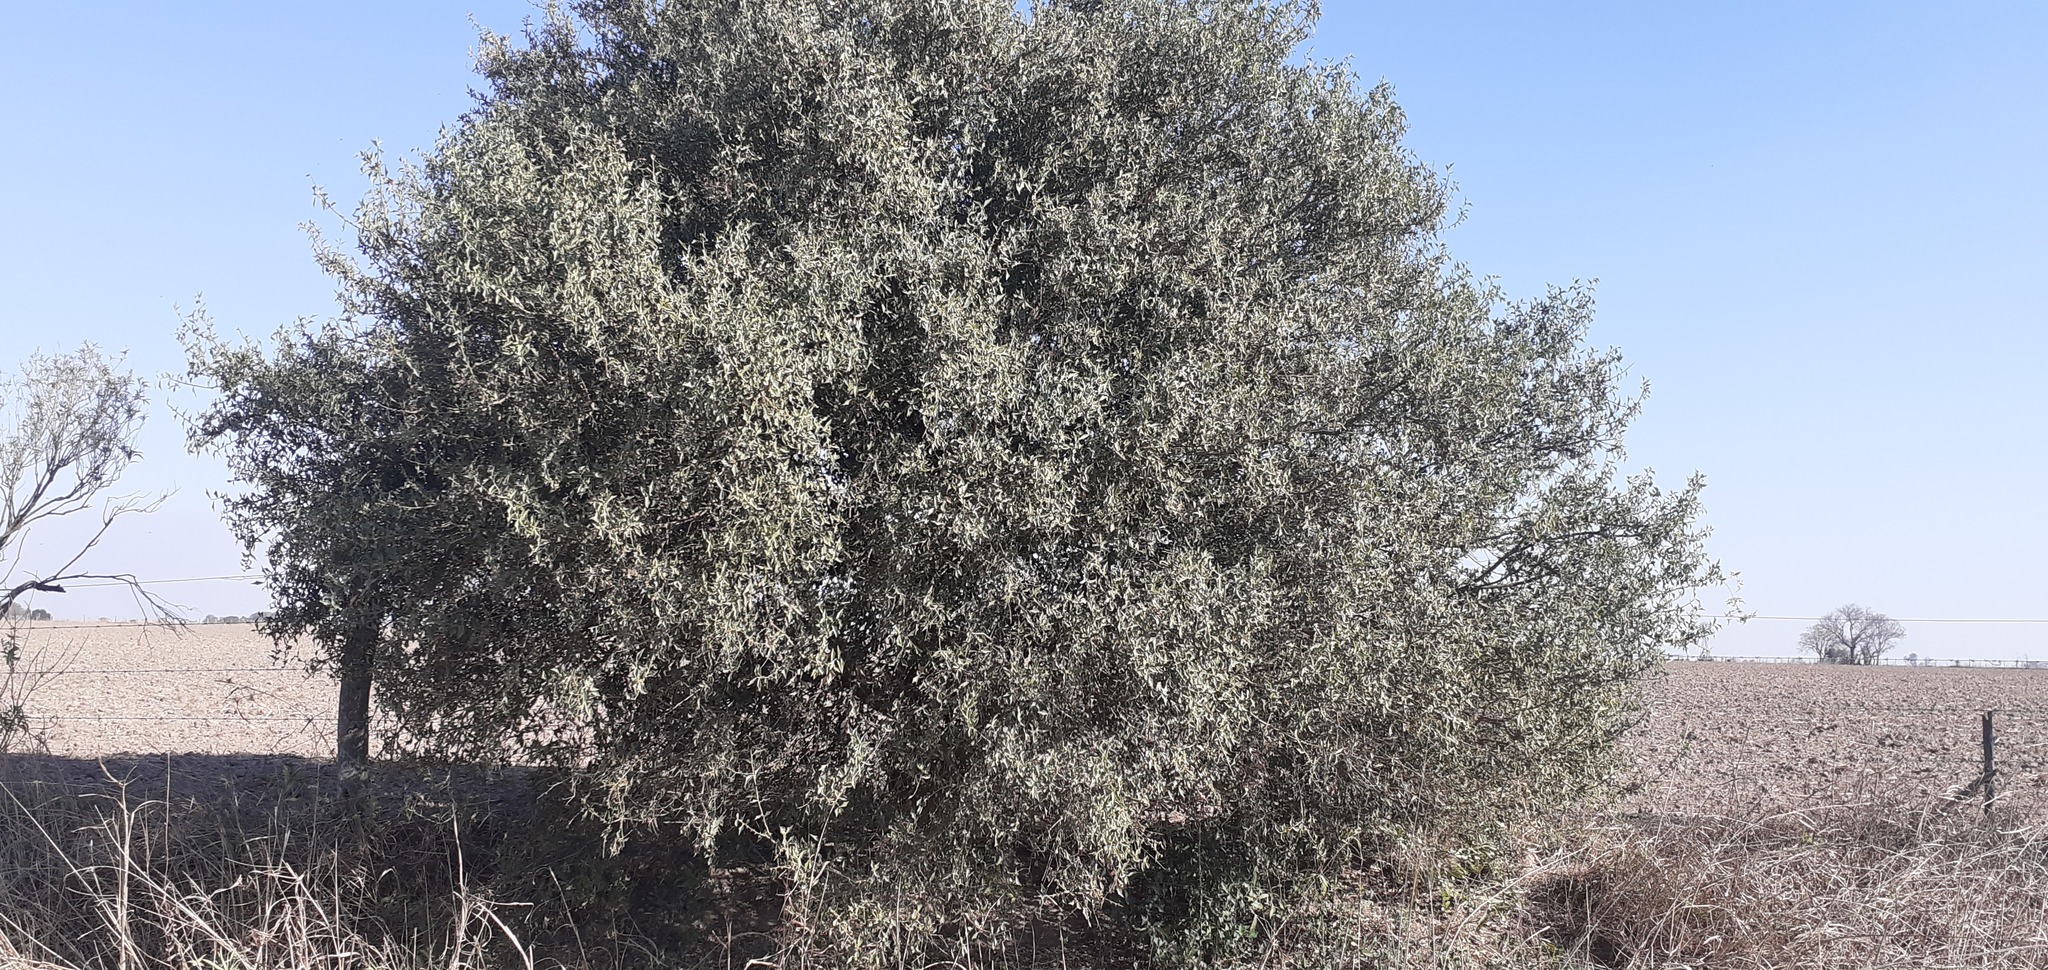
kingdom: Plantae
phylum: Tracheophyta
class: Magnoliopsida
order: Santalales
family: Cervantesiaceae
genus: Jodina
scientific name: Jodina rhombifolia
